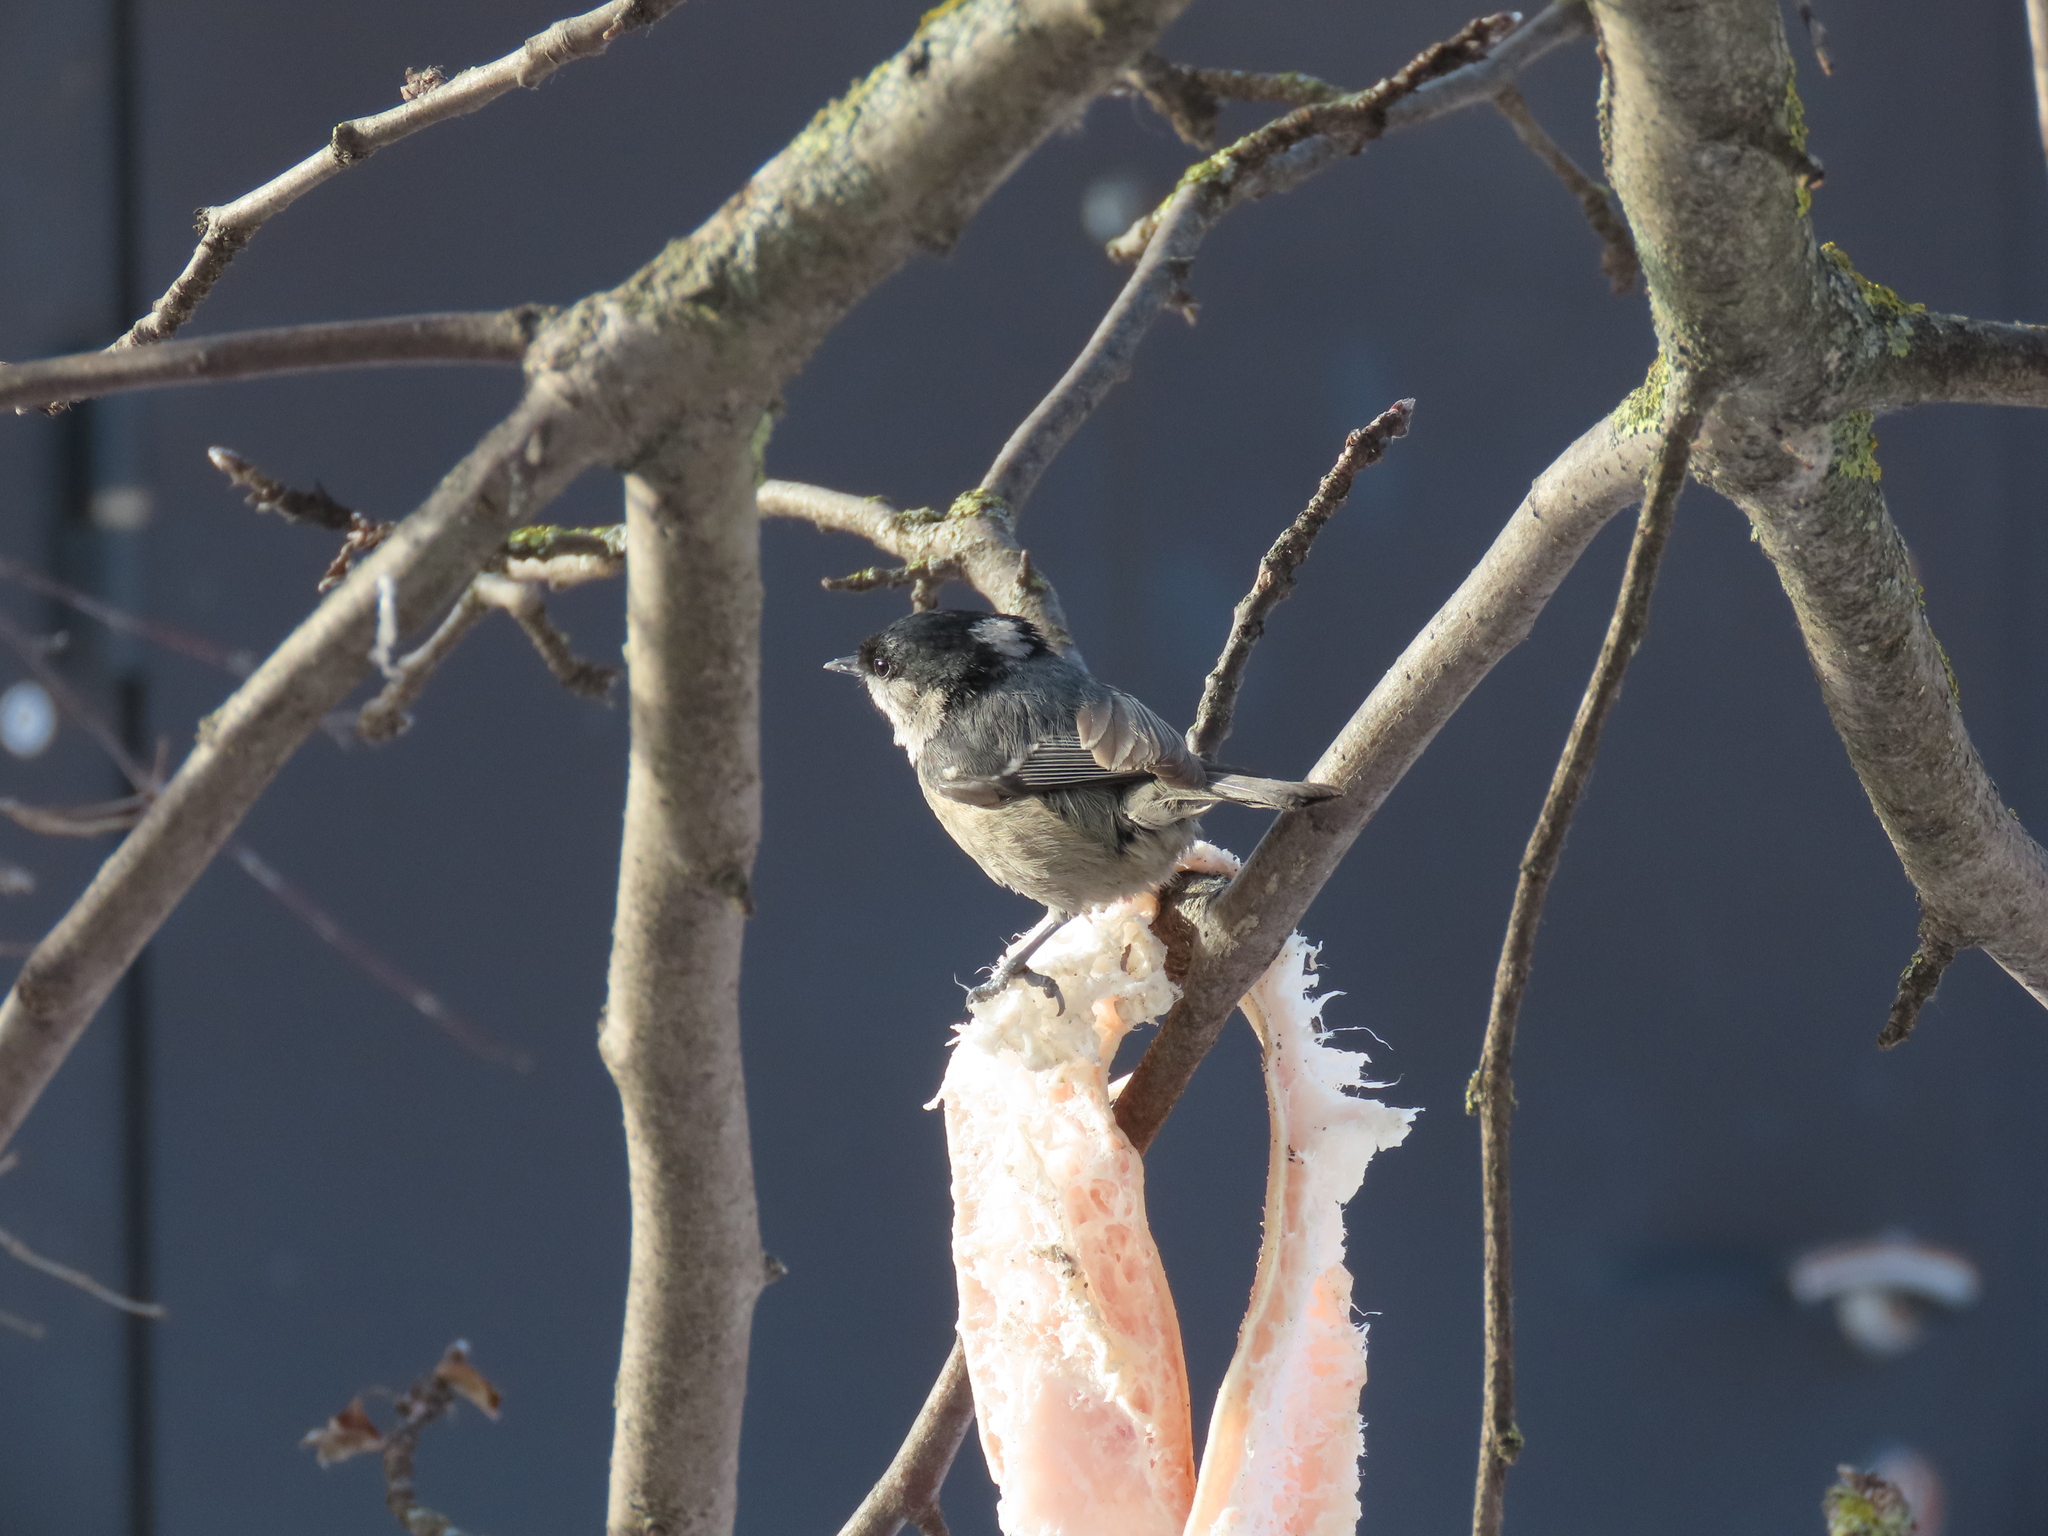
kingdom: Animalia
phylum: Chordata
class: Aves
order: Passeriformes
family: Paridae
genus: Periparus
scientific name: Periparus ater
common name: Coal tit
